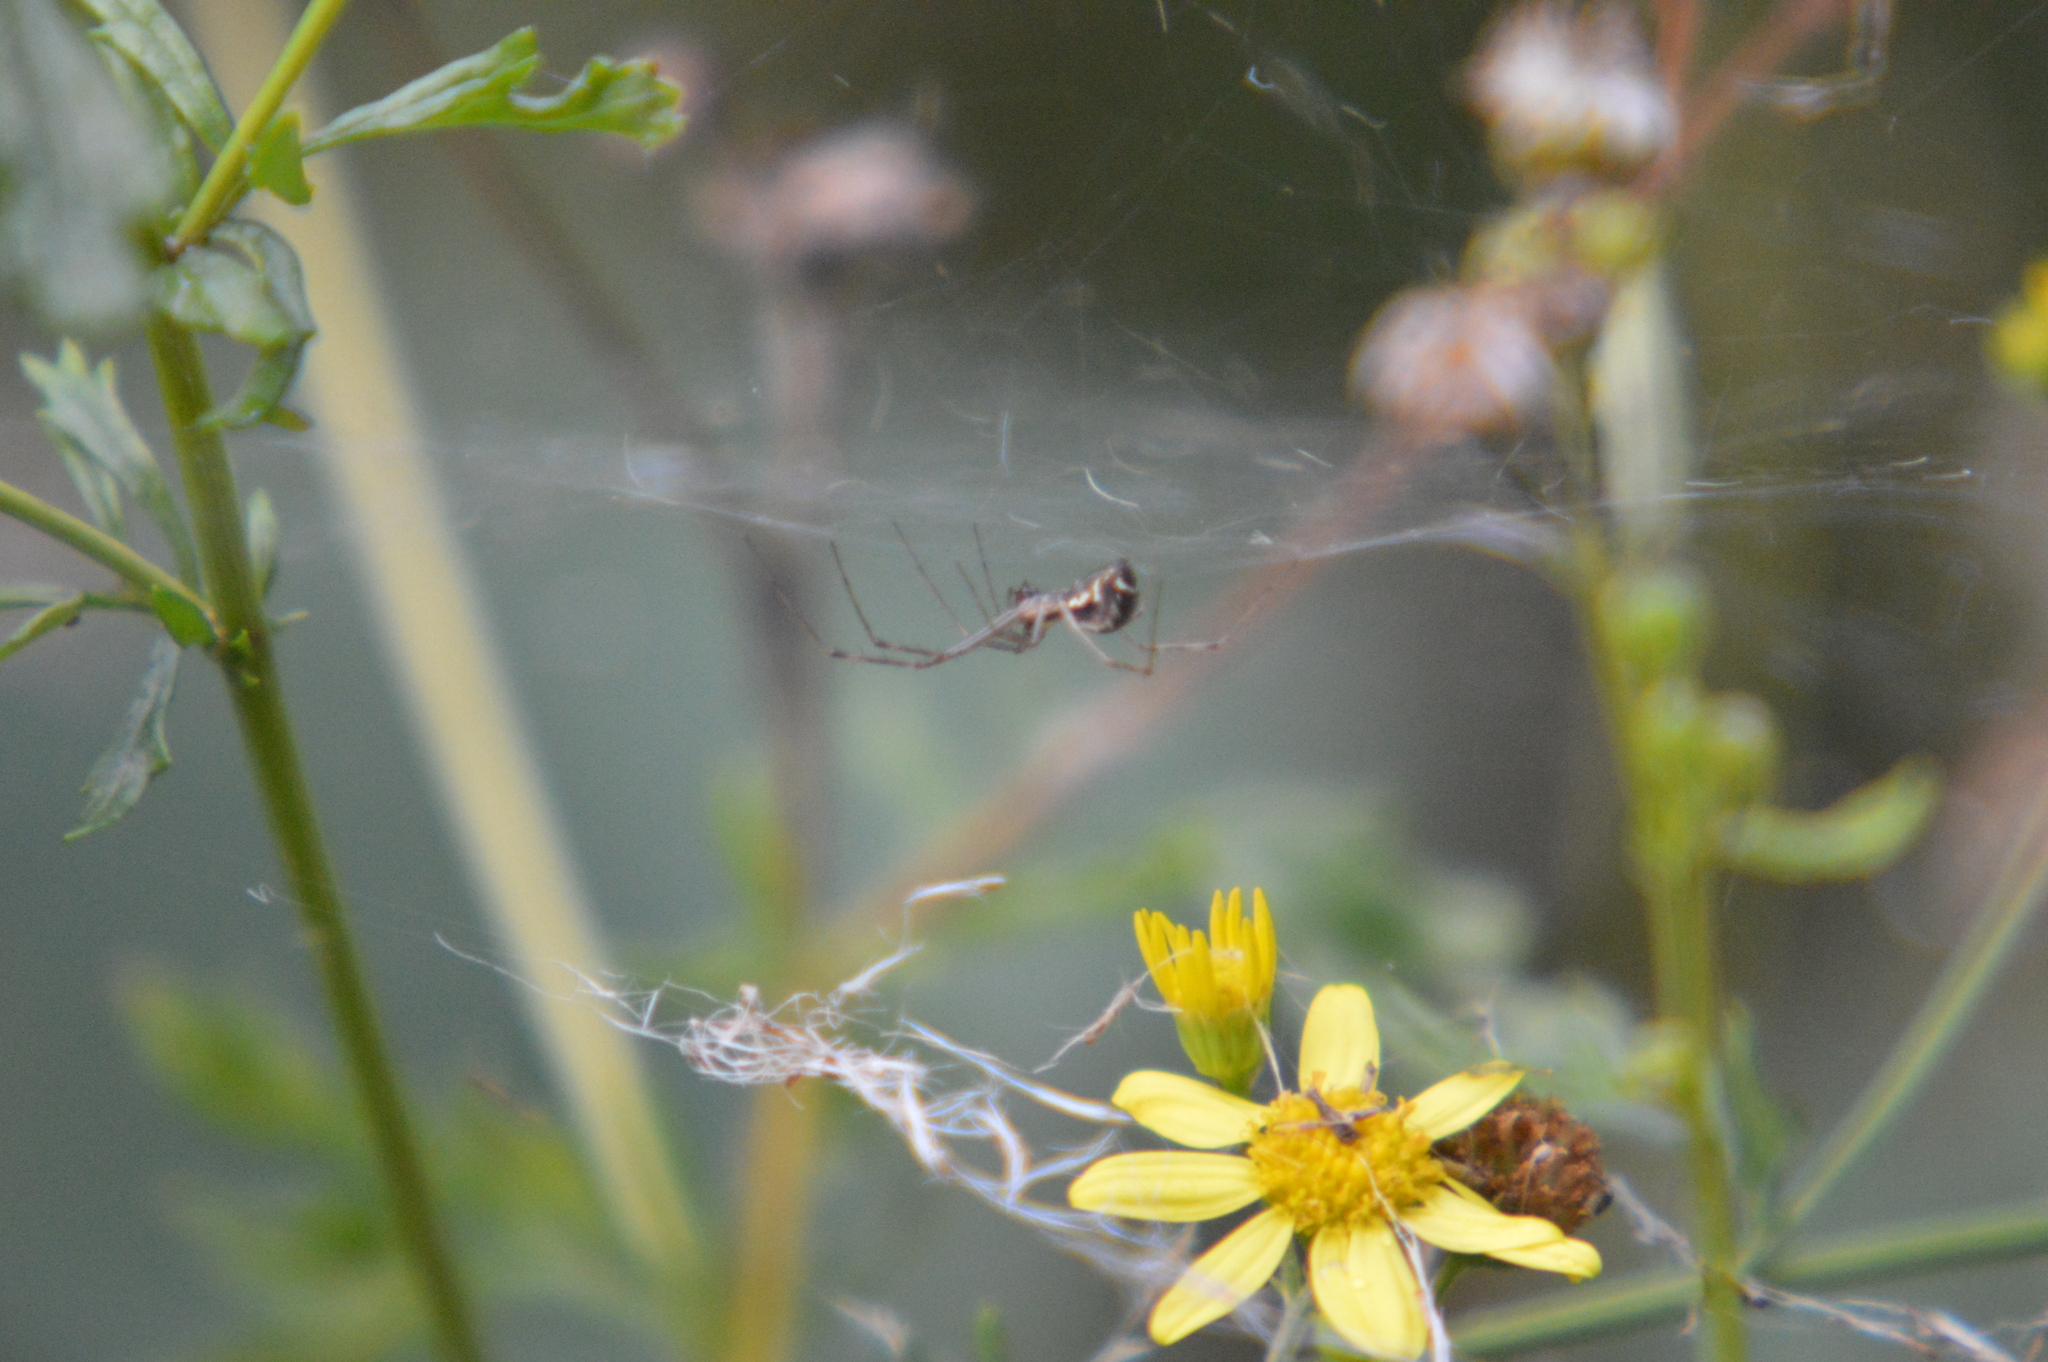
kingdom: Animalia
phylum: Arthropoda
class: Arachnida
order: Araneae
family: Linyphiidae
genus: Linyphia
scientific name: Linyphia triangularis
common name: Money spider
